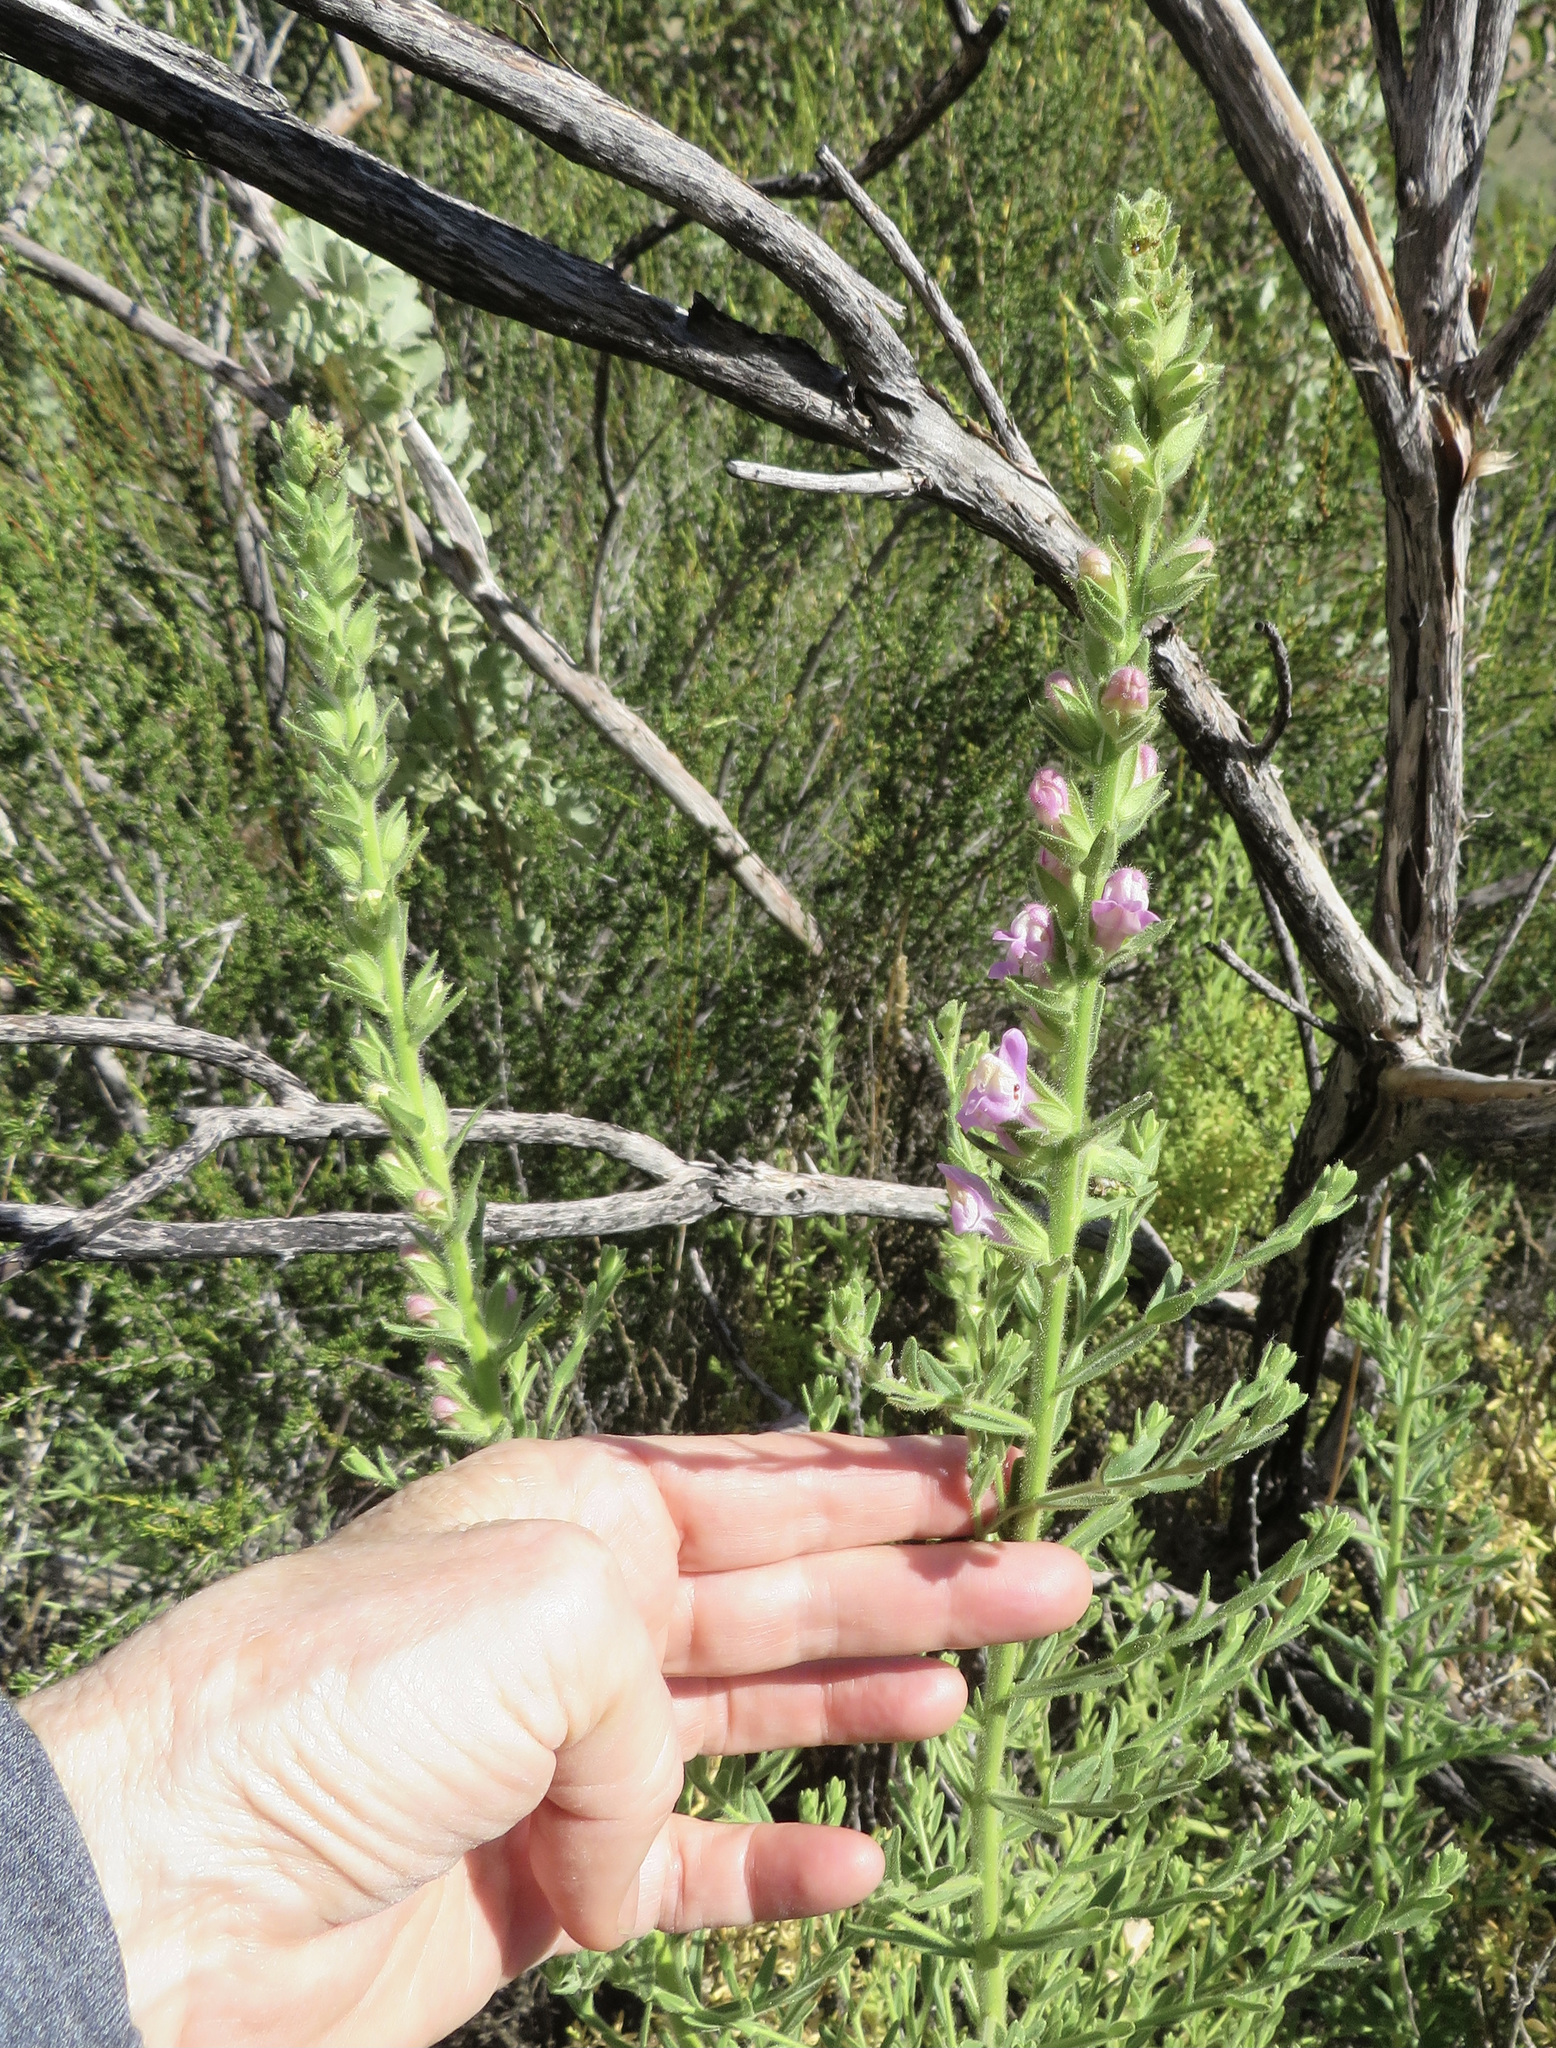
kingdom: Plantae
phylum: Tracheophyta
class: Magnoliopsida
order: Lamiales
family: Plantaginaceae
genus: Sairocarpus
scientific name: Sairocarpus multiflorus
